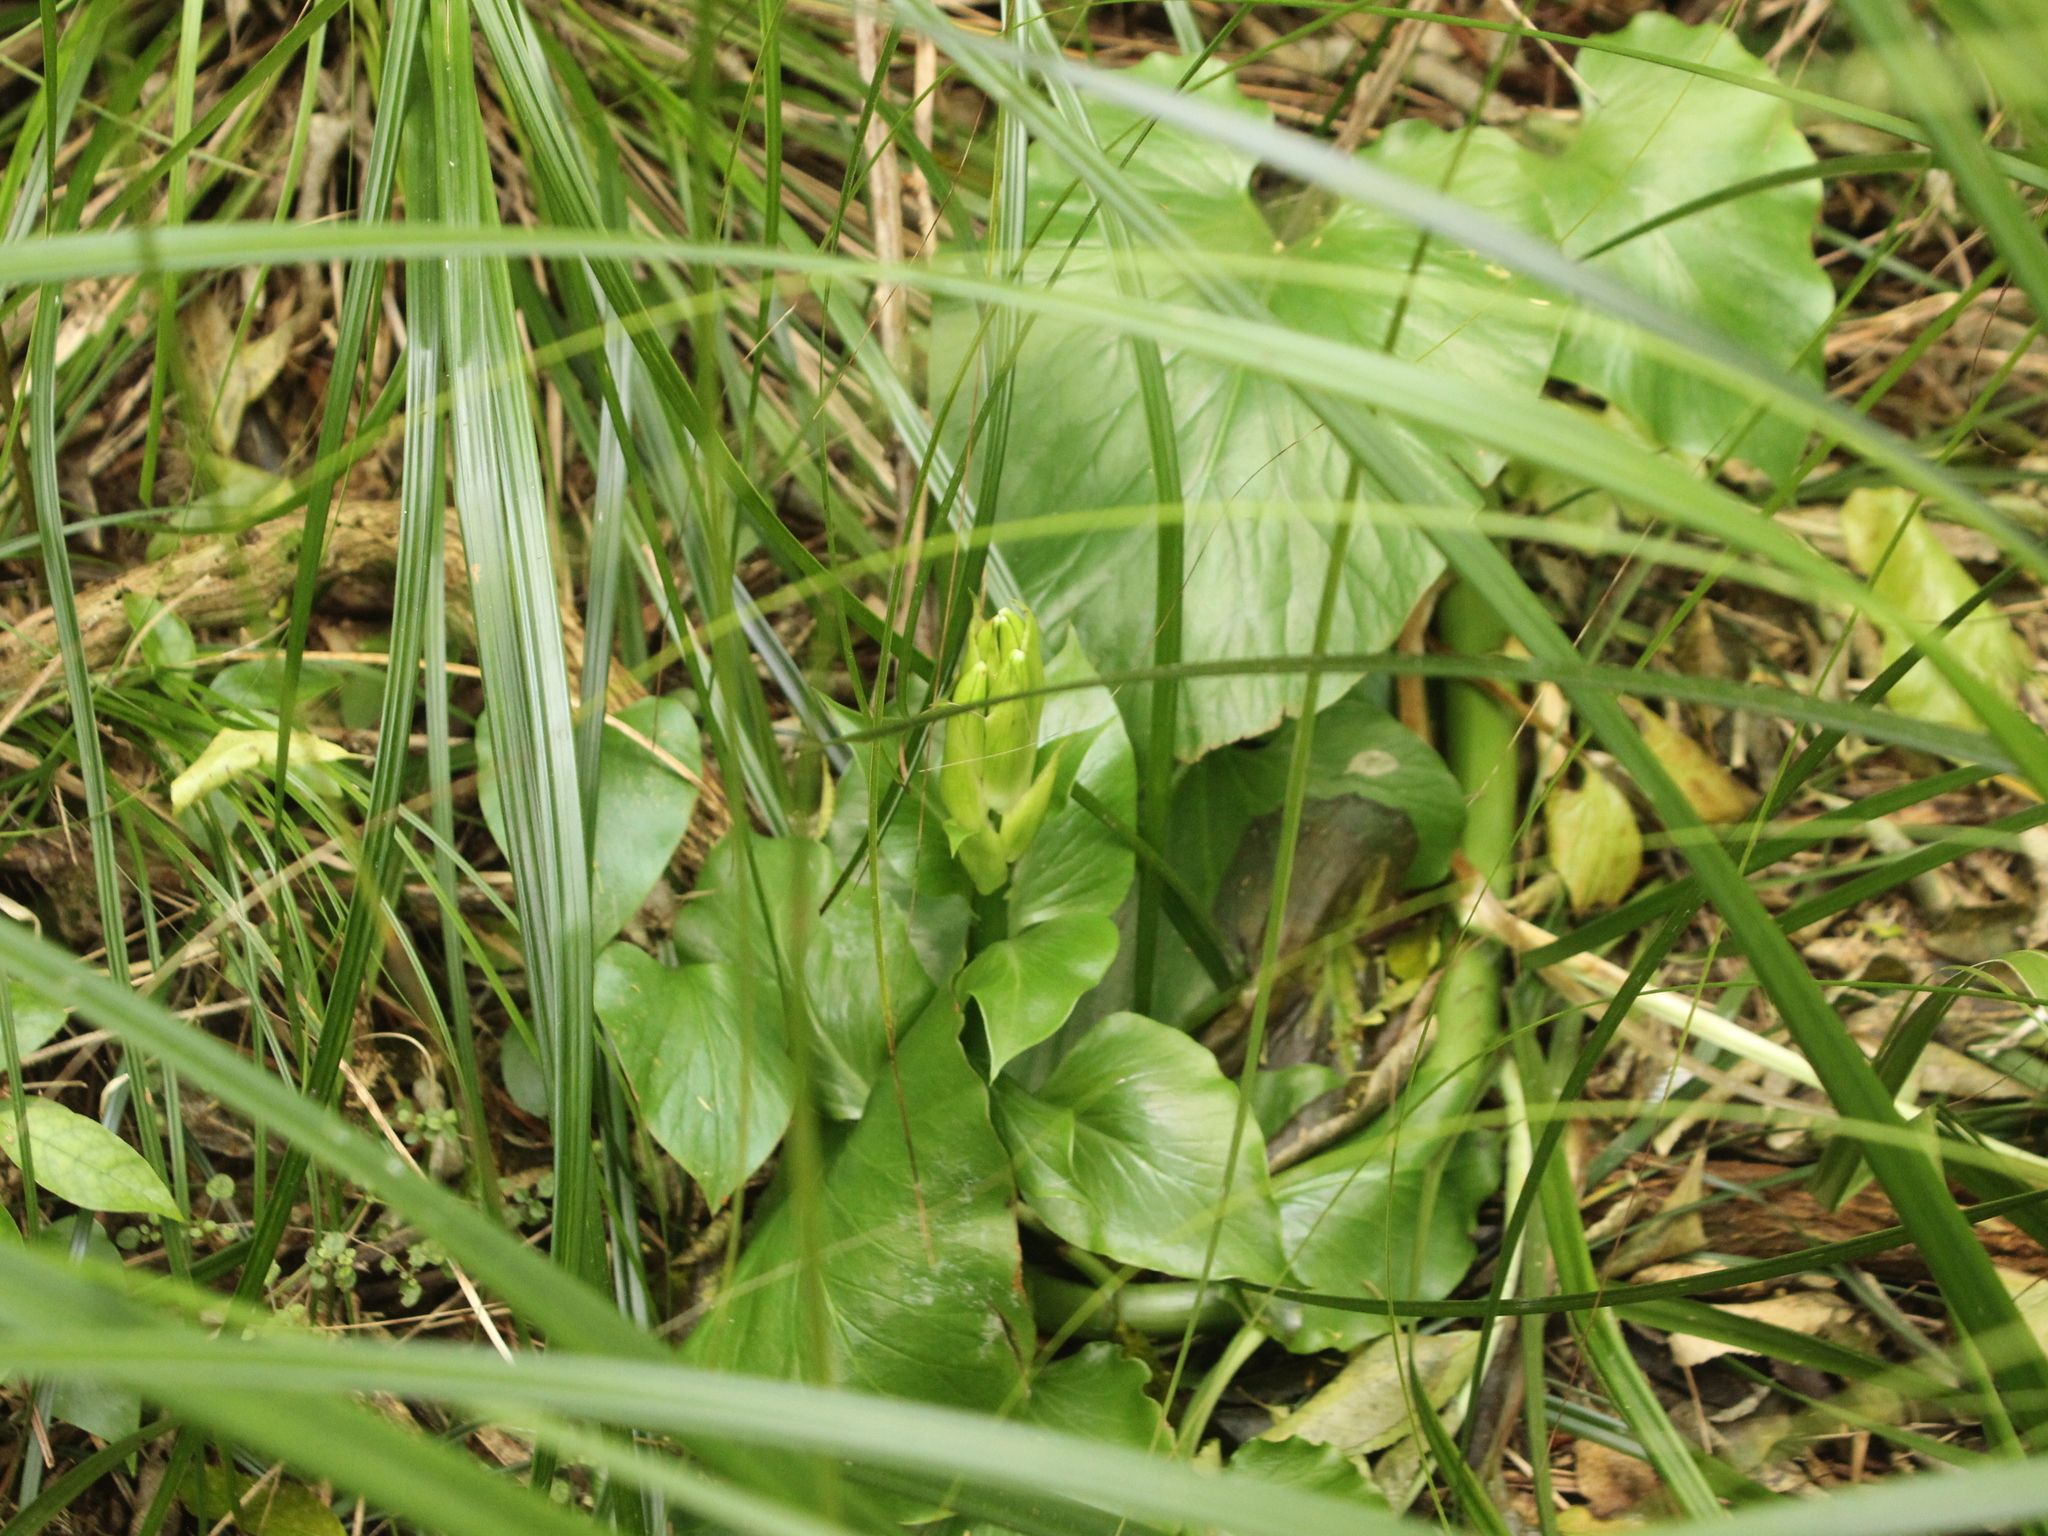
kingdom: Plantae
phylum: Tracheophyta
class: Liliopsida
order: Liliales
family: Liliaceae
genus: Cardiocrinum
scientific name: Cardiocrinum giganteum
